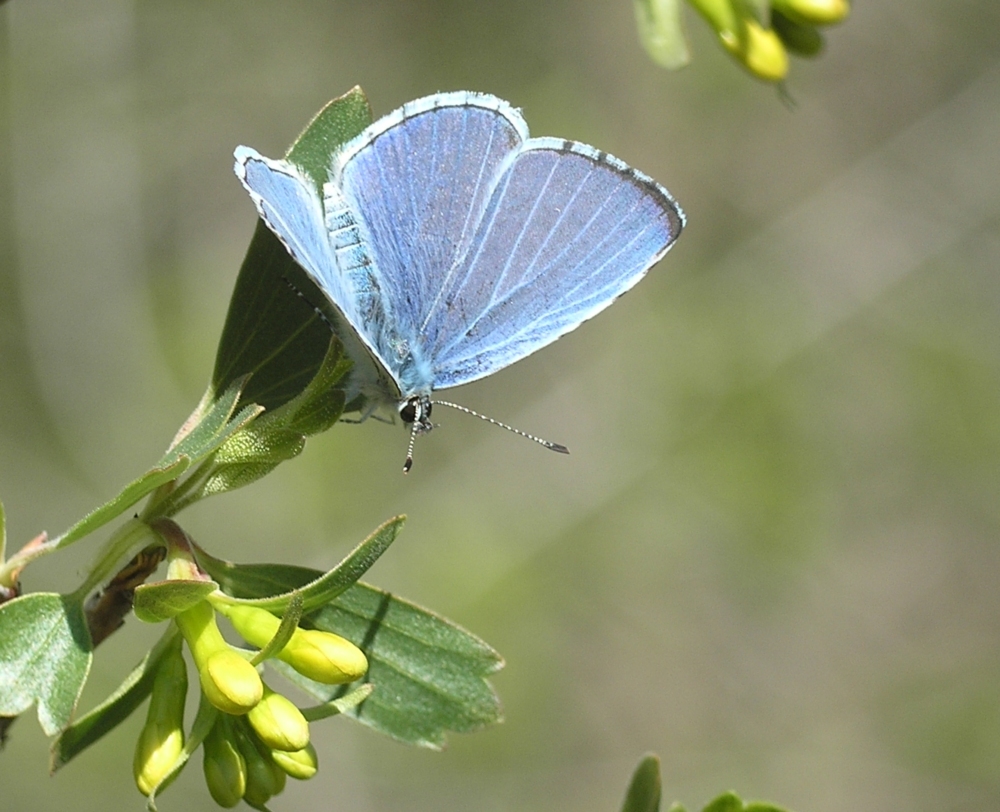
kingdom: Animalia
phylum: Arthropoda
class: Insecta
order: Lepidoptera
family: Lycaenidae
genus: Celastrina
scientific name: Celastrina argiolus
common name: Holly blue
